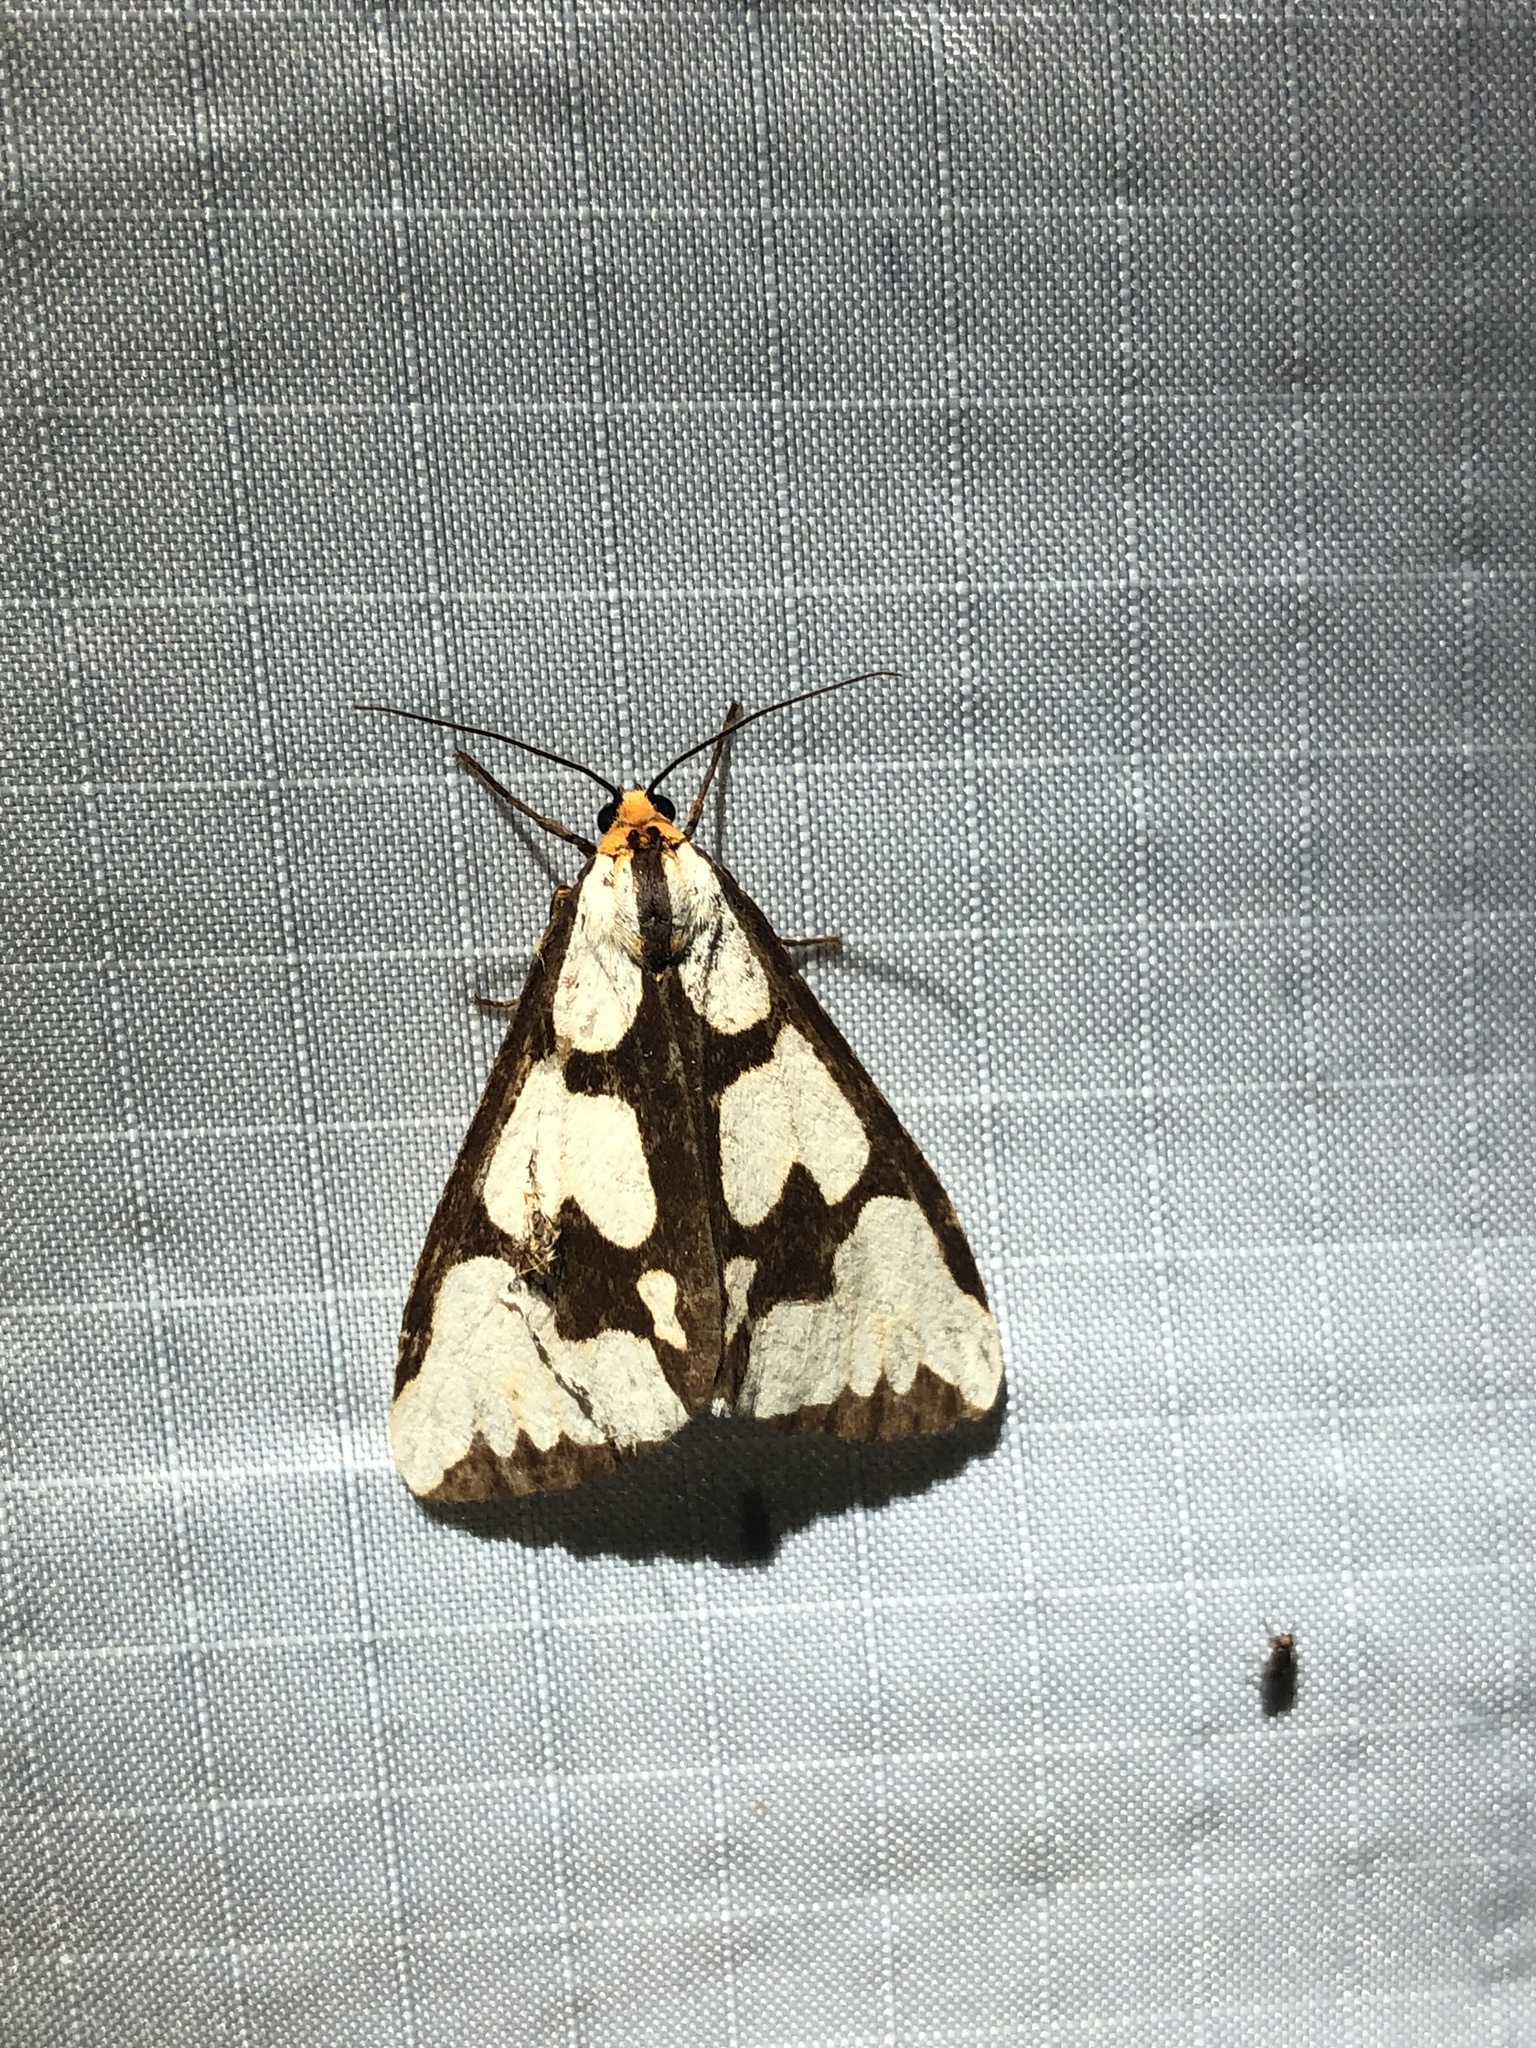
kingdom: Animalia
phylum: Arthropoda
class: Insecta
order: Lepidoptera
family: Erebidae
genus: Haploa
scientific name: Haploa confusa
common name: Confused haploa moth
